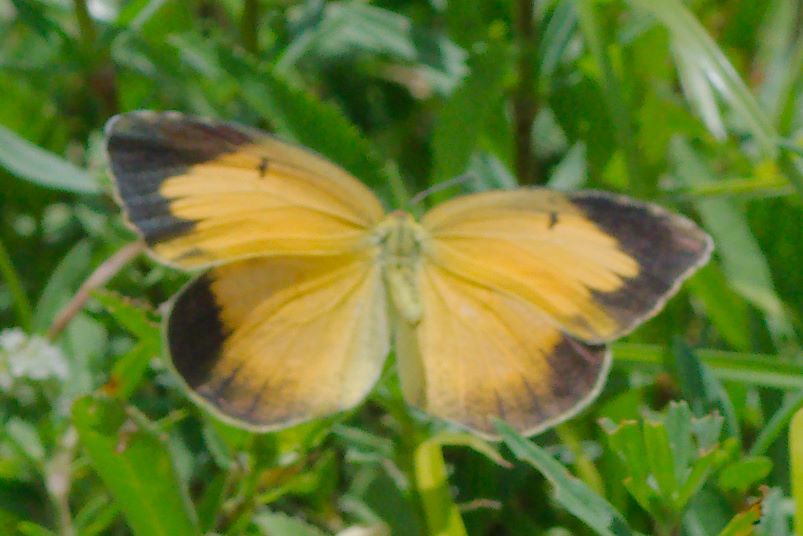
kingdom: Animalia
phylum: Arthropoda
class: Insecta
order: Lepidoptera
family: Pieridae
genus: Abaeis
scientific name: Abaeis nicippe
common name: Sleepy orange
